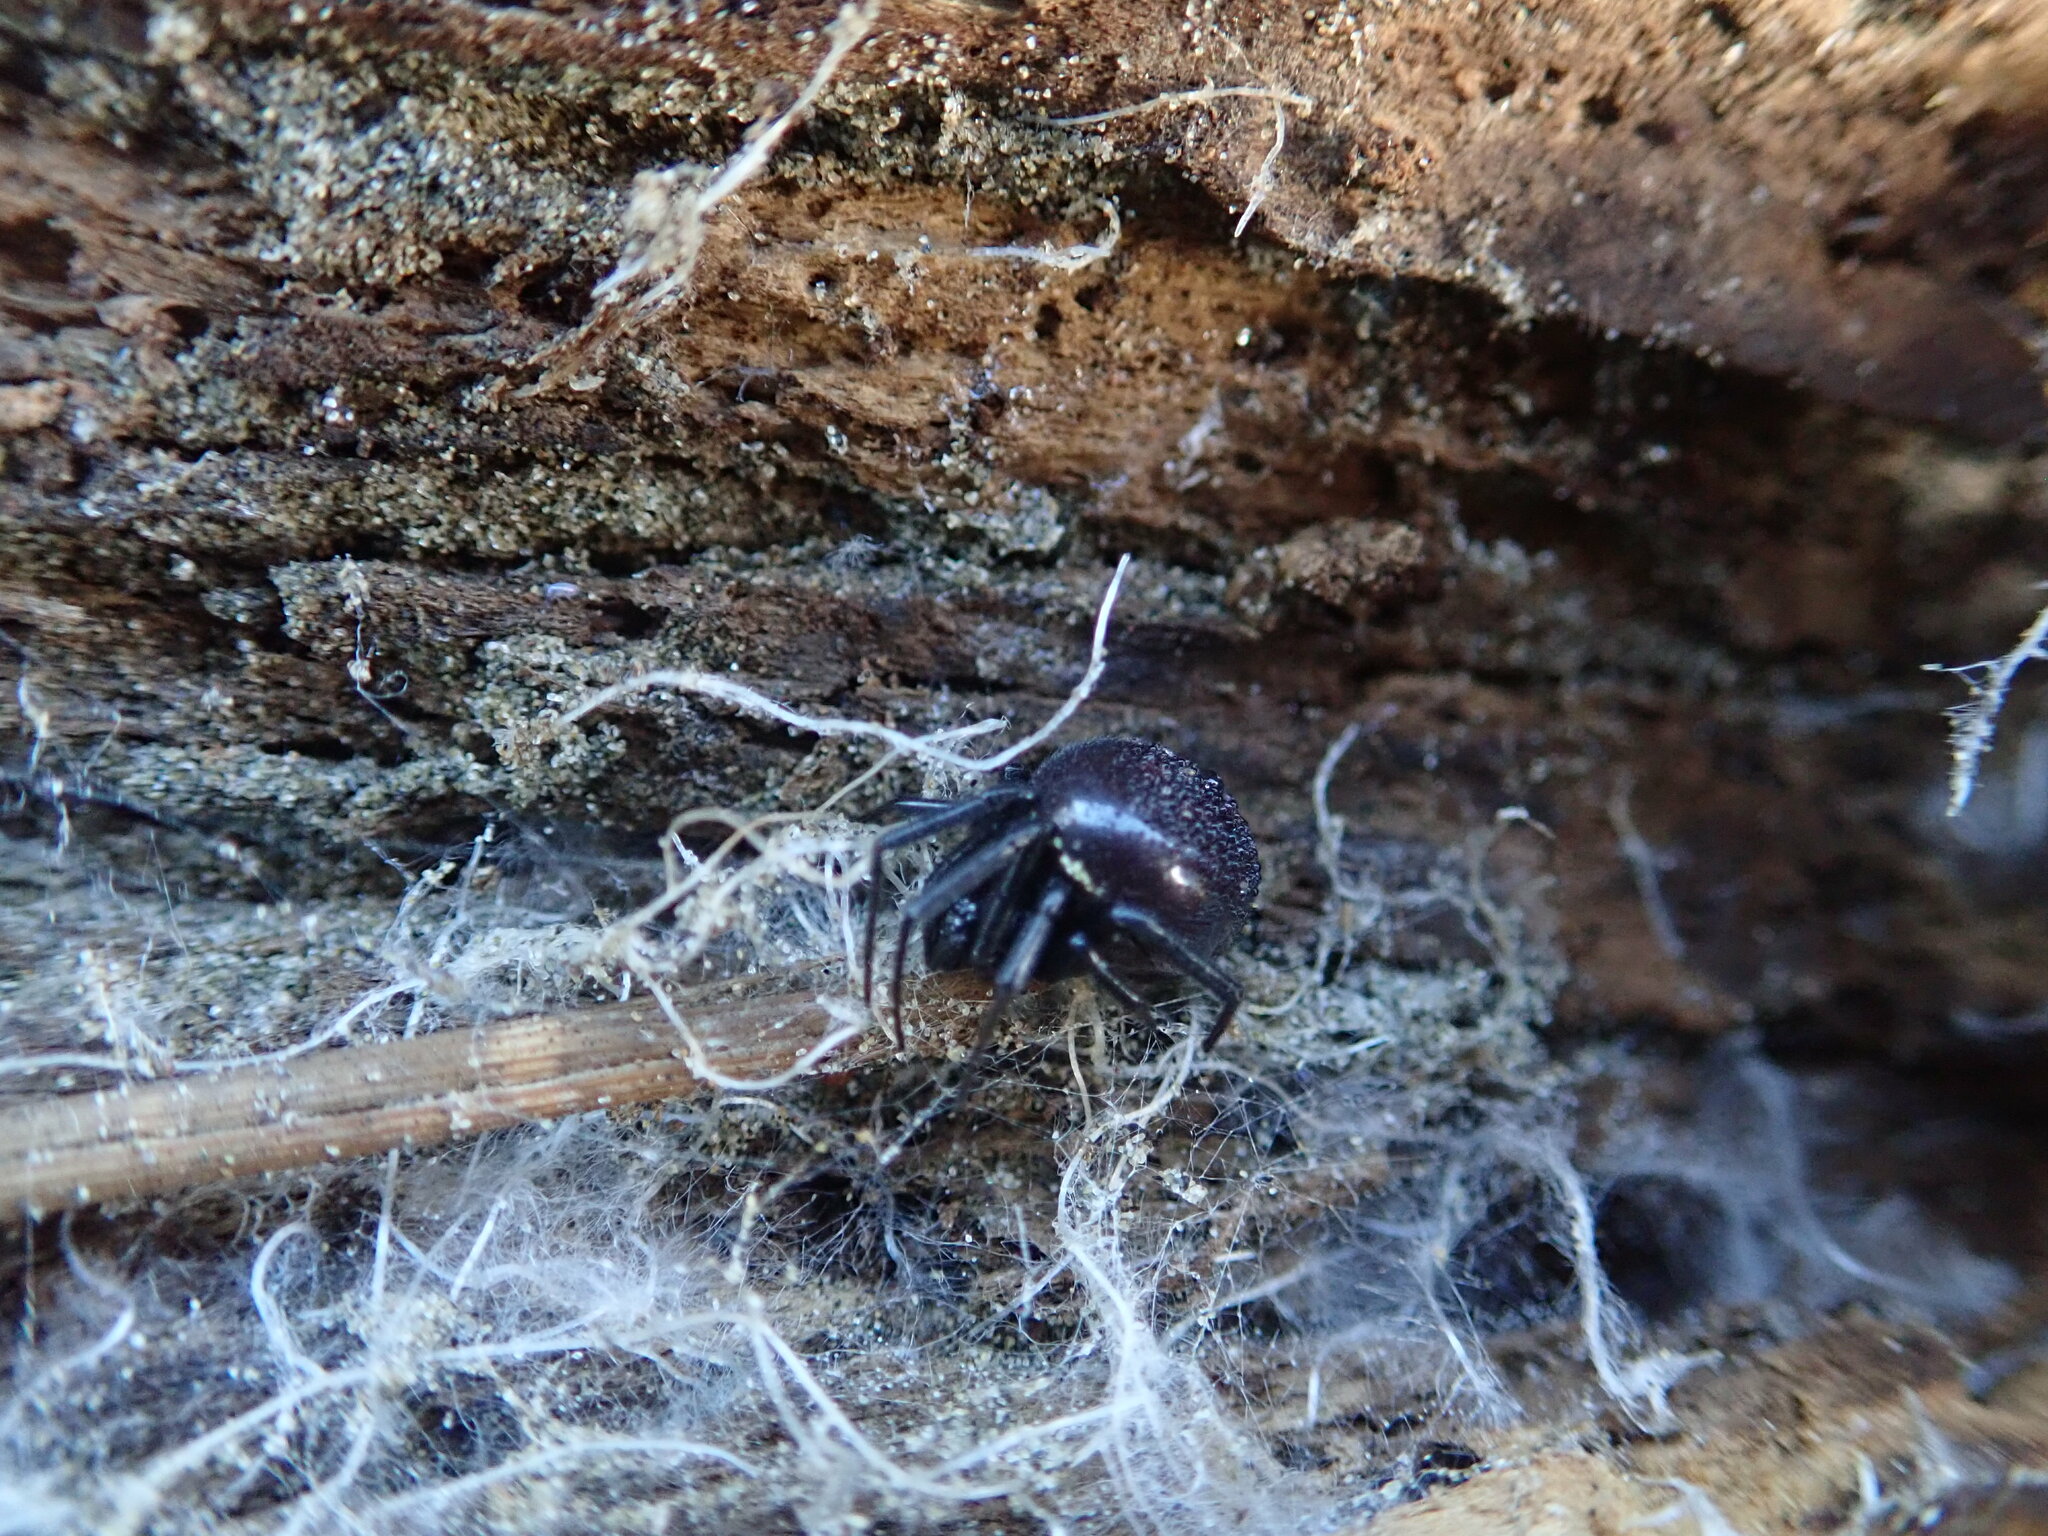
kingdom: Animalia
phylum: Arthropoda
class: Arachnida
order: Araneae
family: Theridiidae
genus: Steatoda
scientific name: Steatoda capensis
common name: Cobweb weaver
